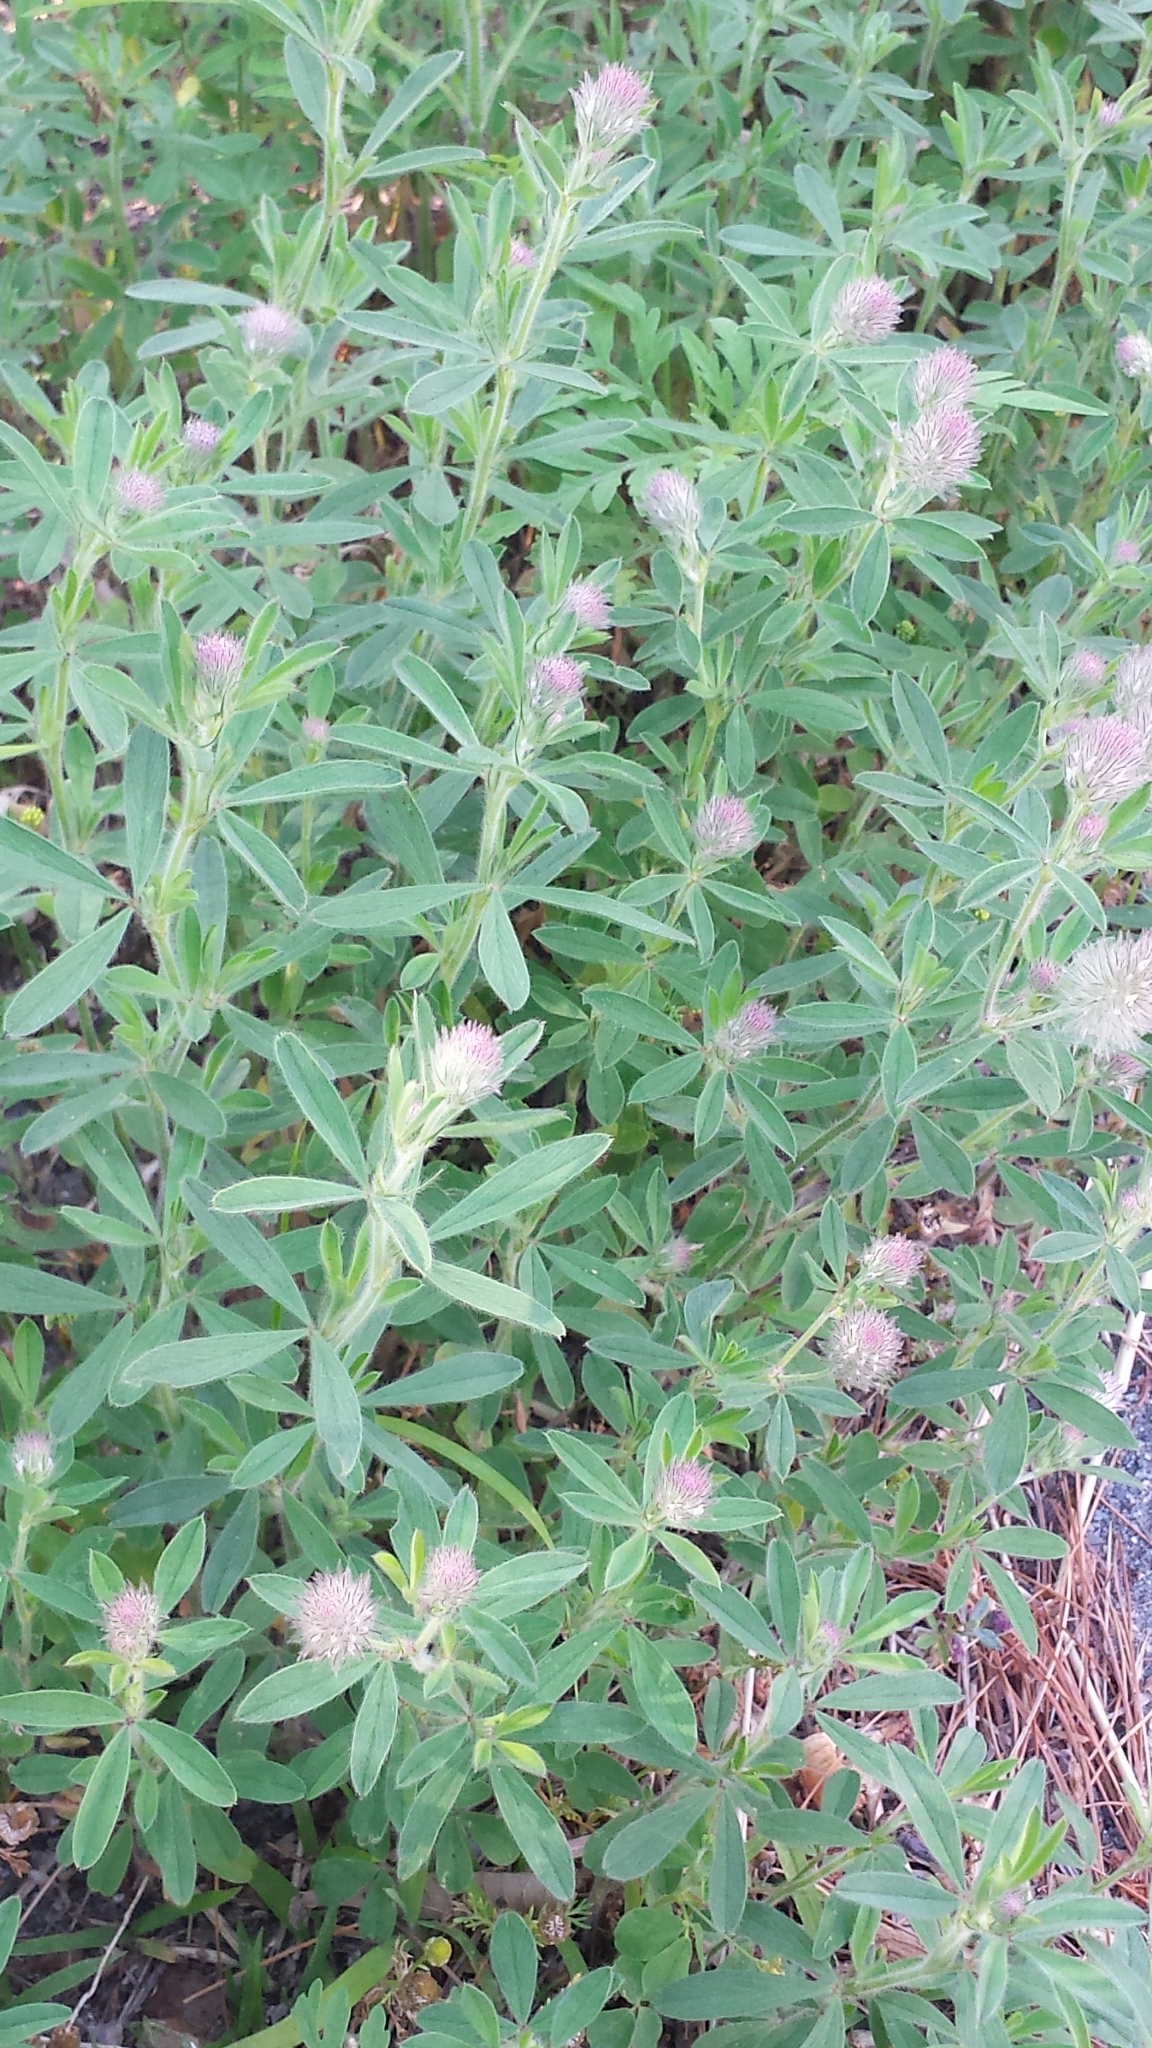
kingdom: Plantae
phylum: Tracheophyta
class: Magnoliopsida
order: Fabales
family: Fabaceae
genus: Trifolium
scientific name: Trifolium arvense
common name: Hare's-foot clover
